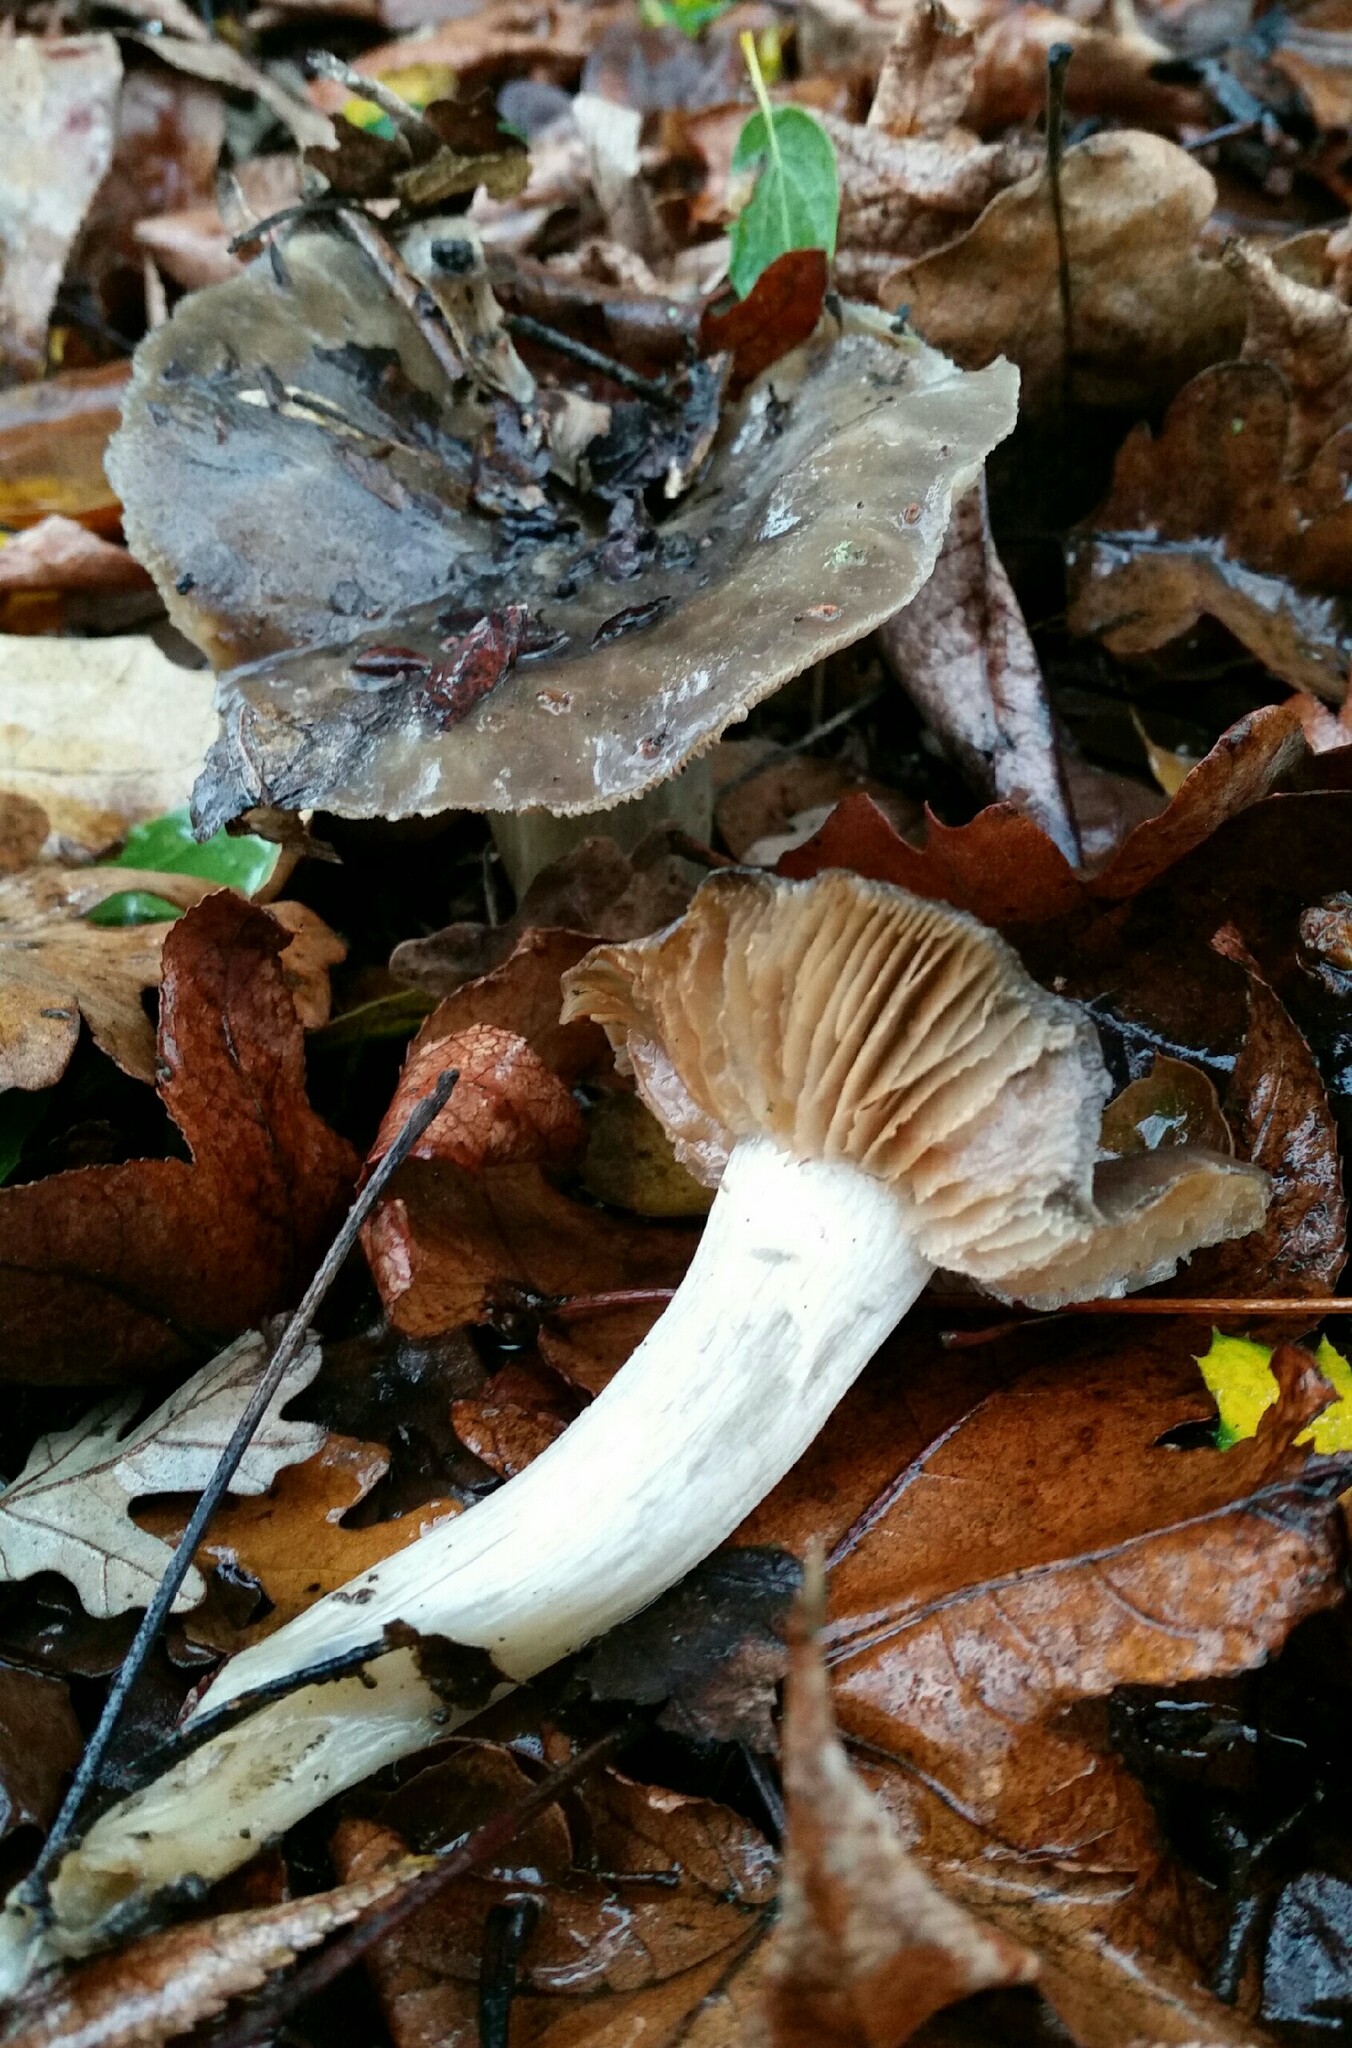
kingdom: Fungi
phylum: Basidiomycota
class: Agaricomycetes
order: Agaricales
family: Entolomataceae
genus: Entoloma
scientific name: Entoloma ferruginans
